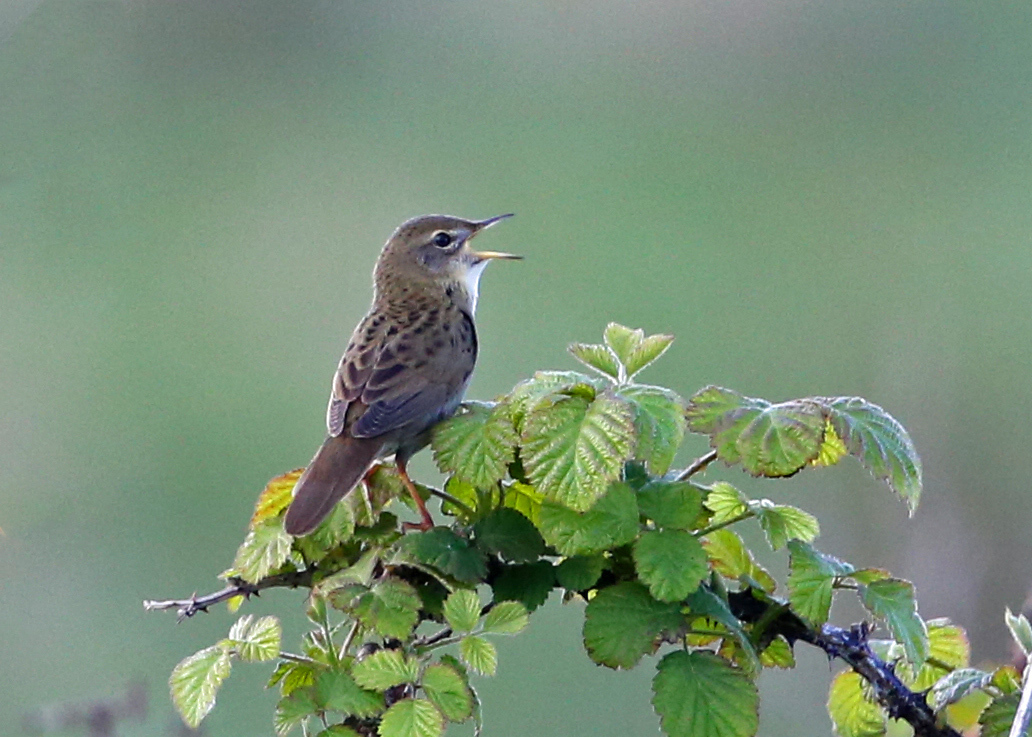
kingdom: Animalia
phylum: Chordata
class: Aves
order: Passeriformes
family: Locustellidae
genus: Locustella
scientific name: Locustella naevia
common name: Common grasshopper warbler
